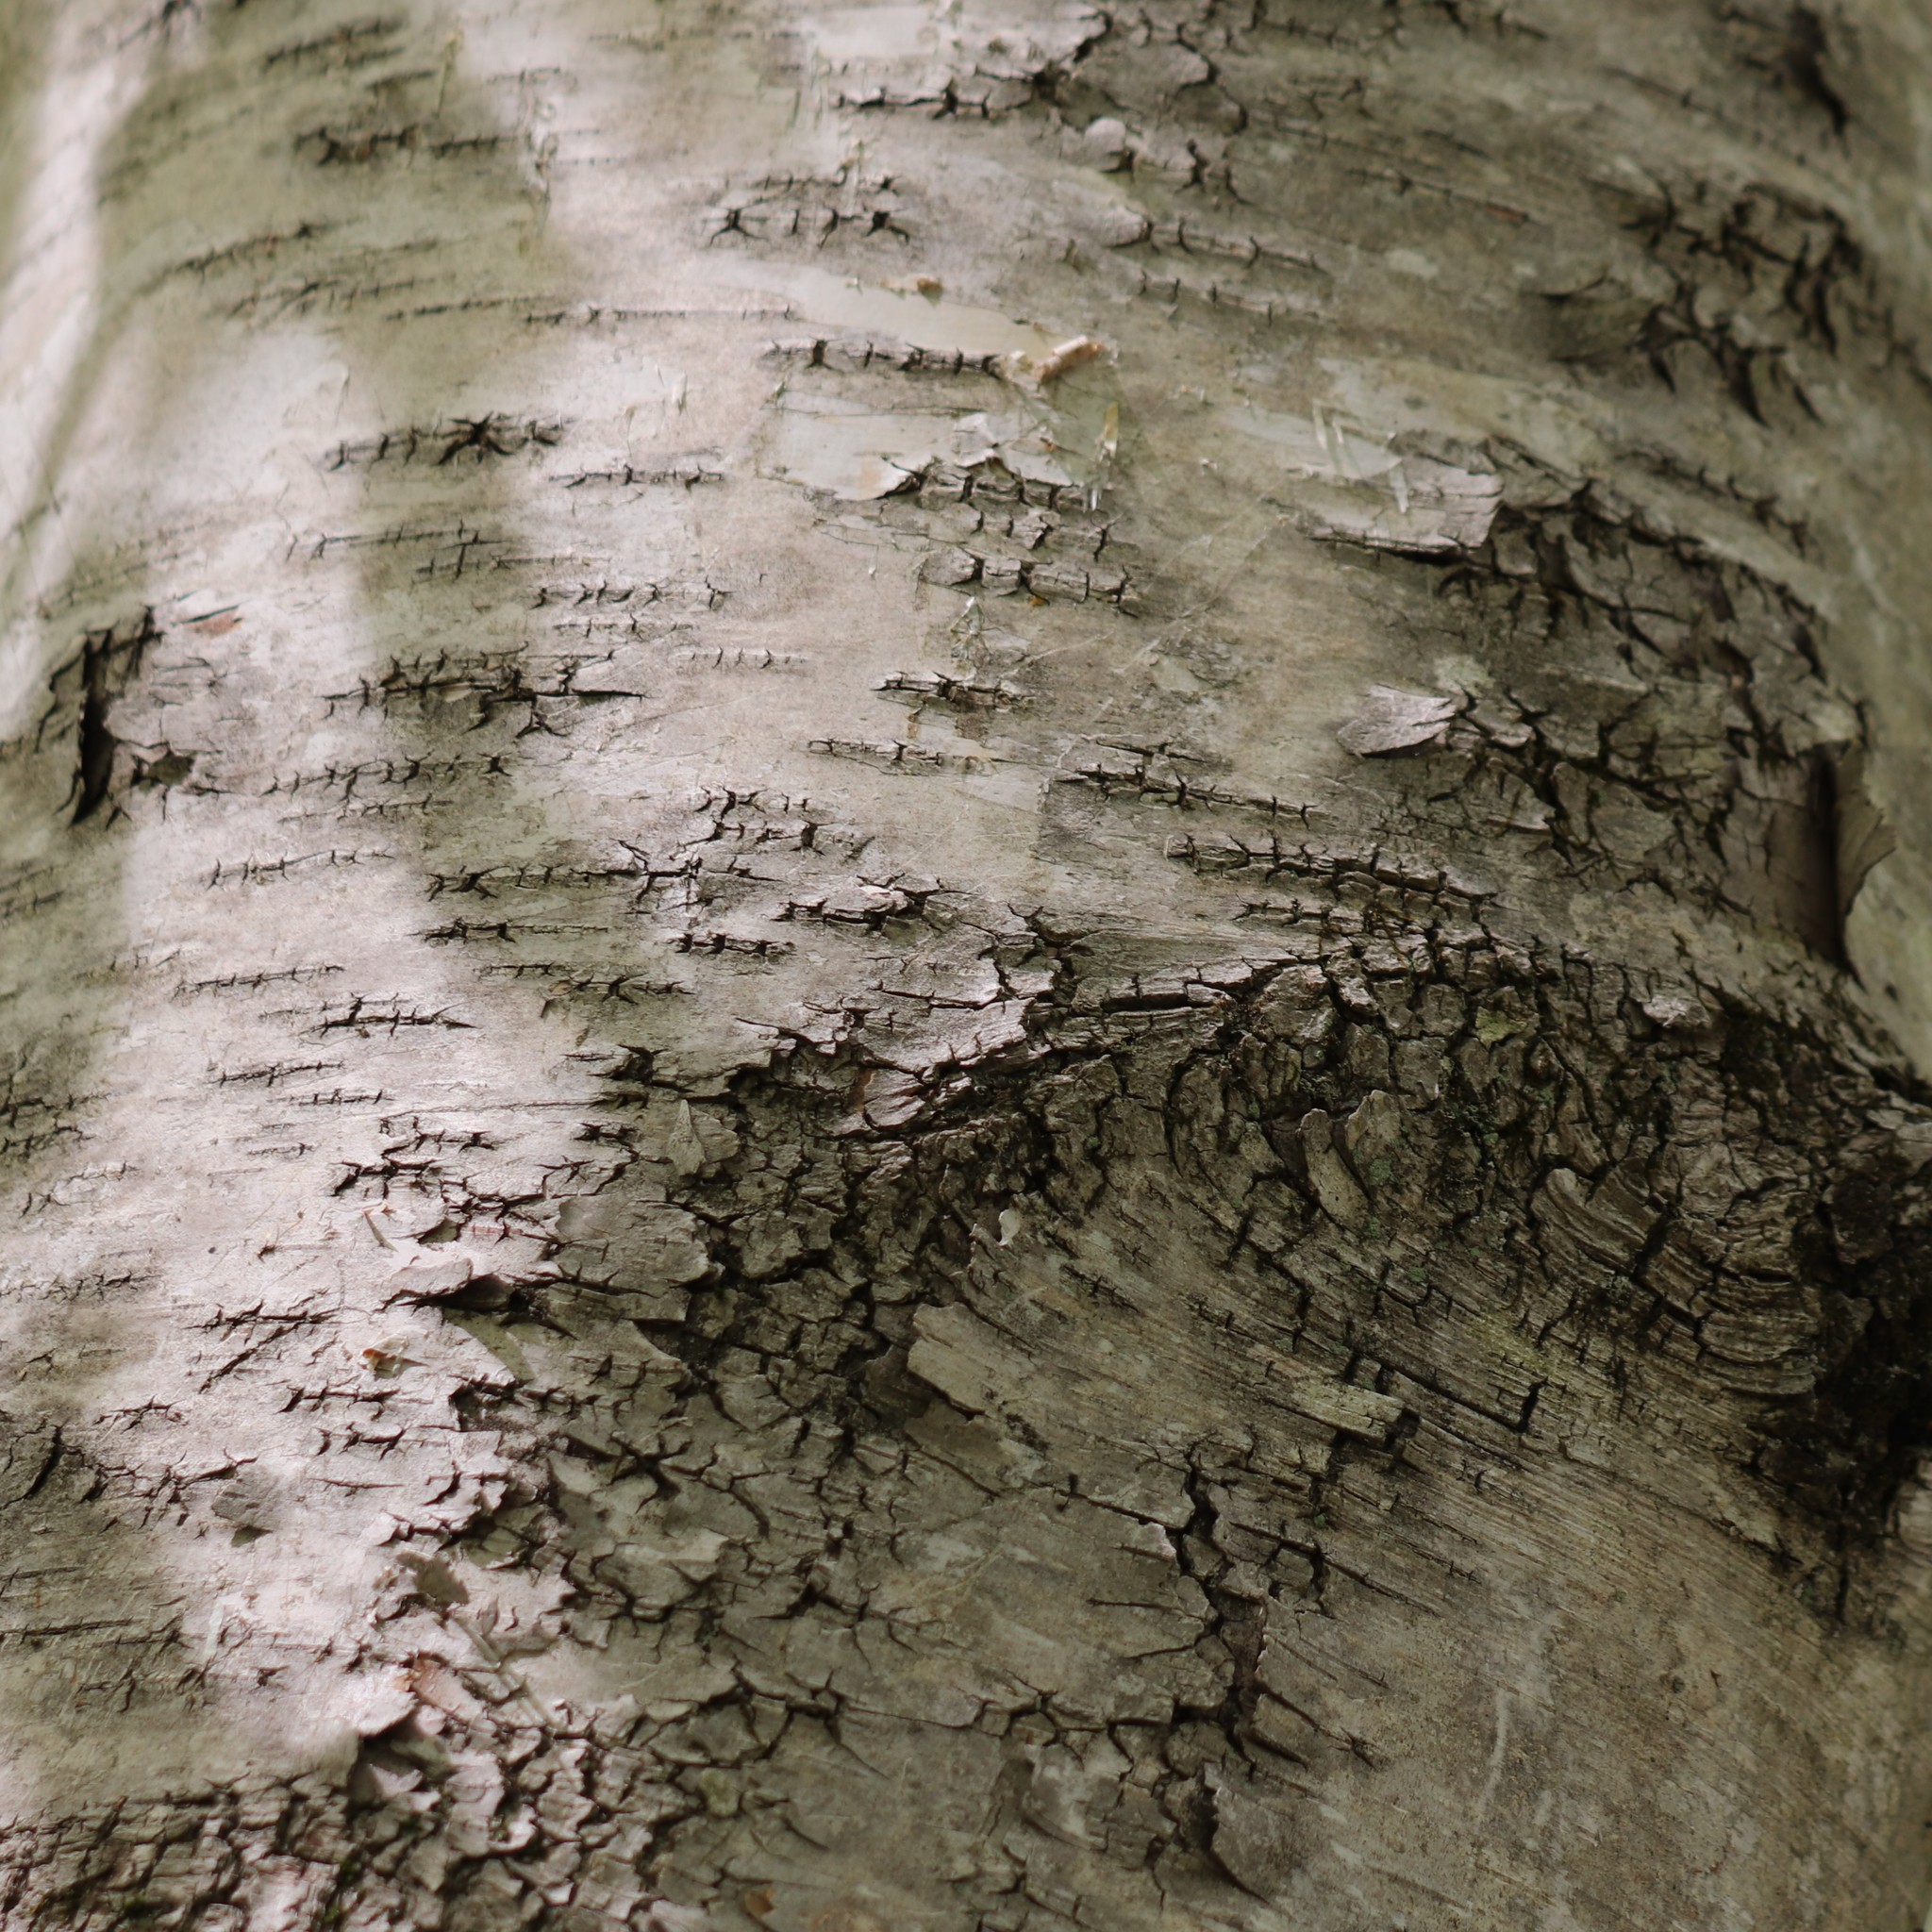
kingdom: Plantae
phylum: Tracheophyta
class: Magnoliopsida
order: Fagales
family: Betulaceae
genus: Betula
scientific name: Betula papyrifera
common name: Paper birch
